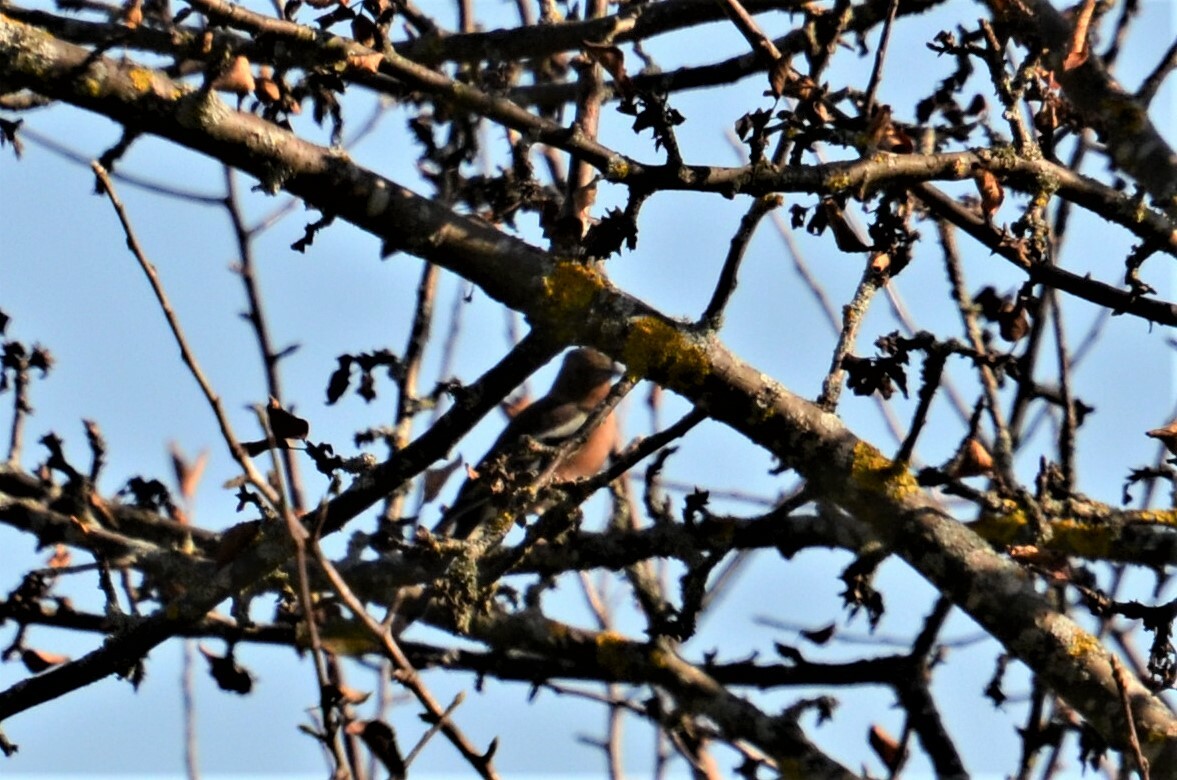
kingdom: Animalia
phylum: Chordata
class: Aves
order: Passeriformes
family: Fringillidae
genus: Fringilla
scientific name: Fringilla coelebs
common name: Common chaffinch
